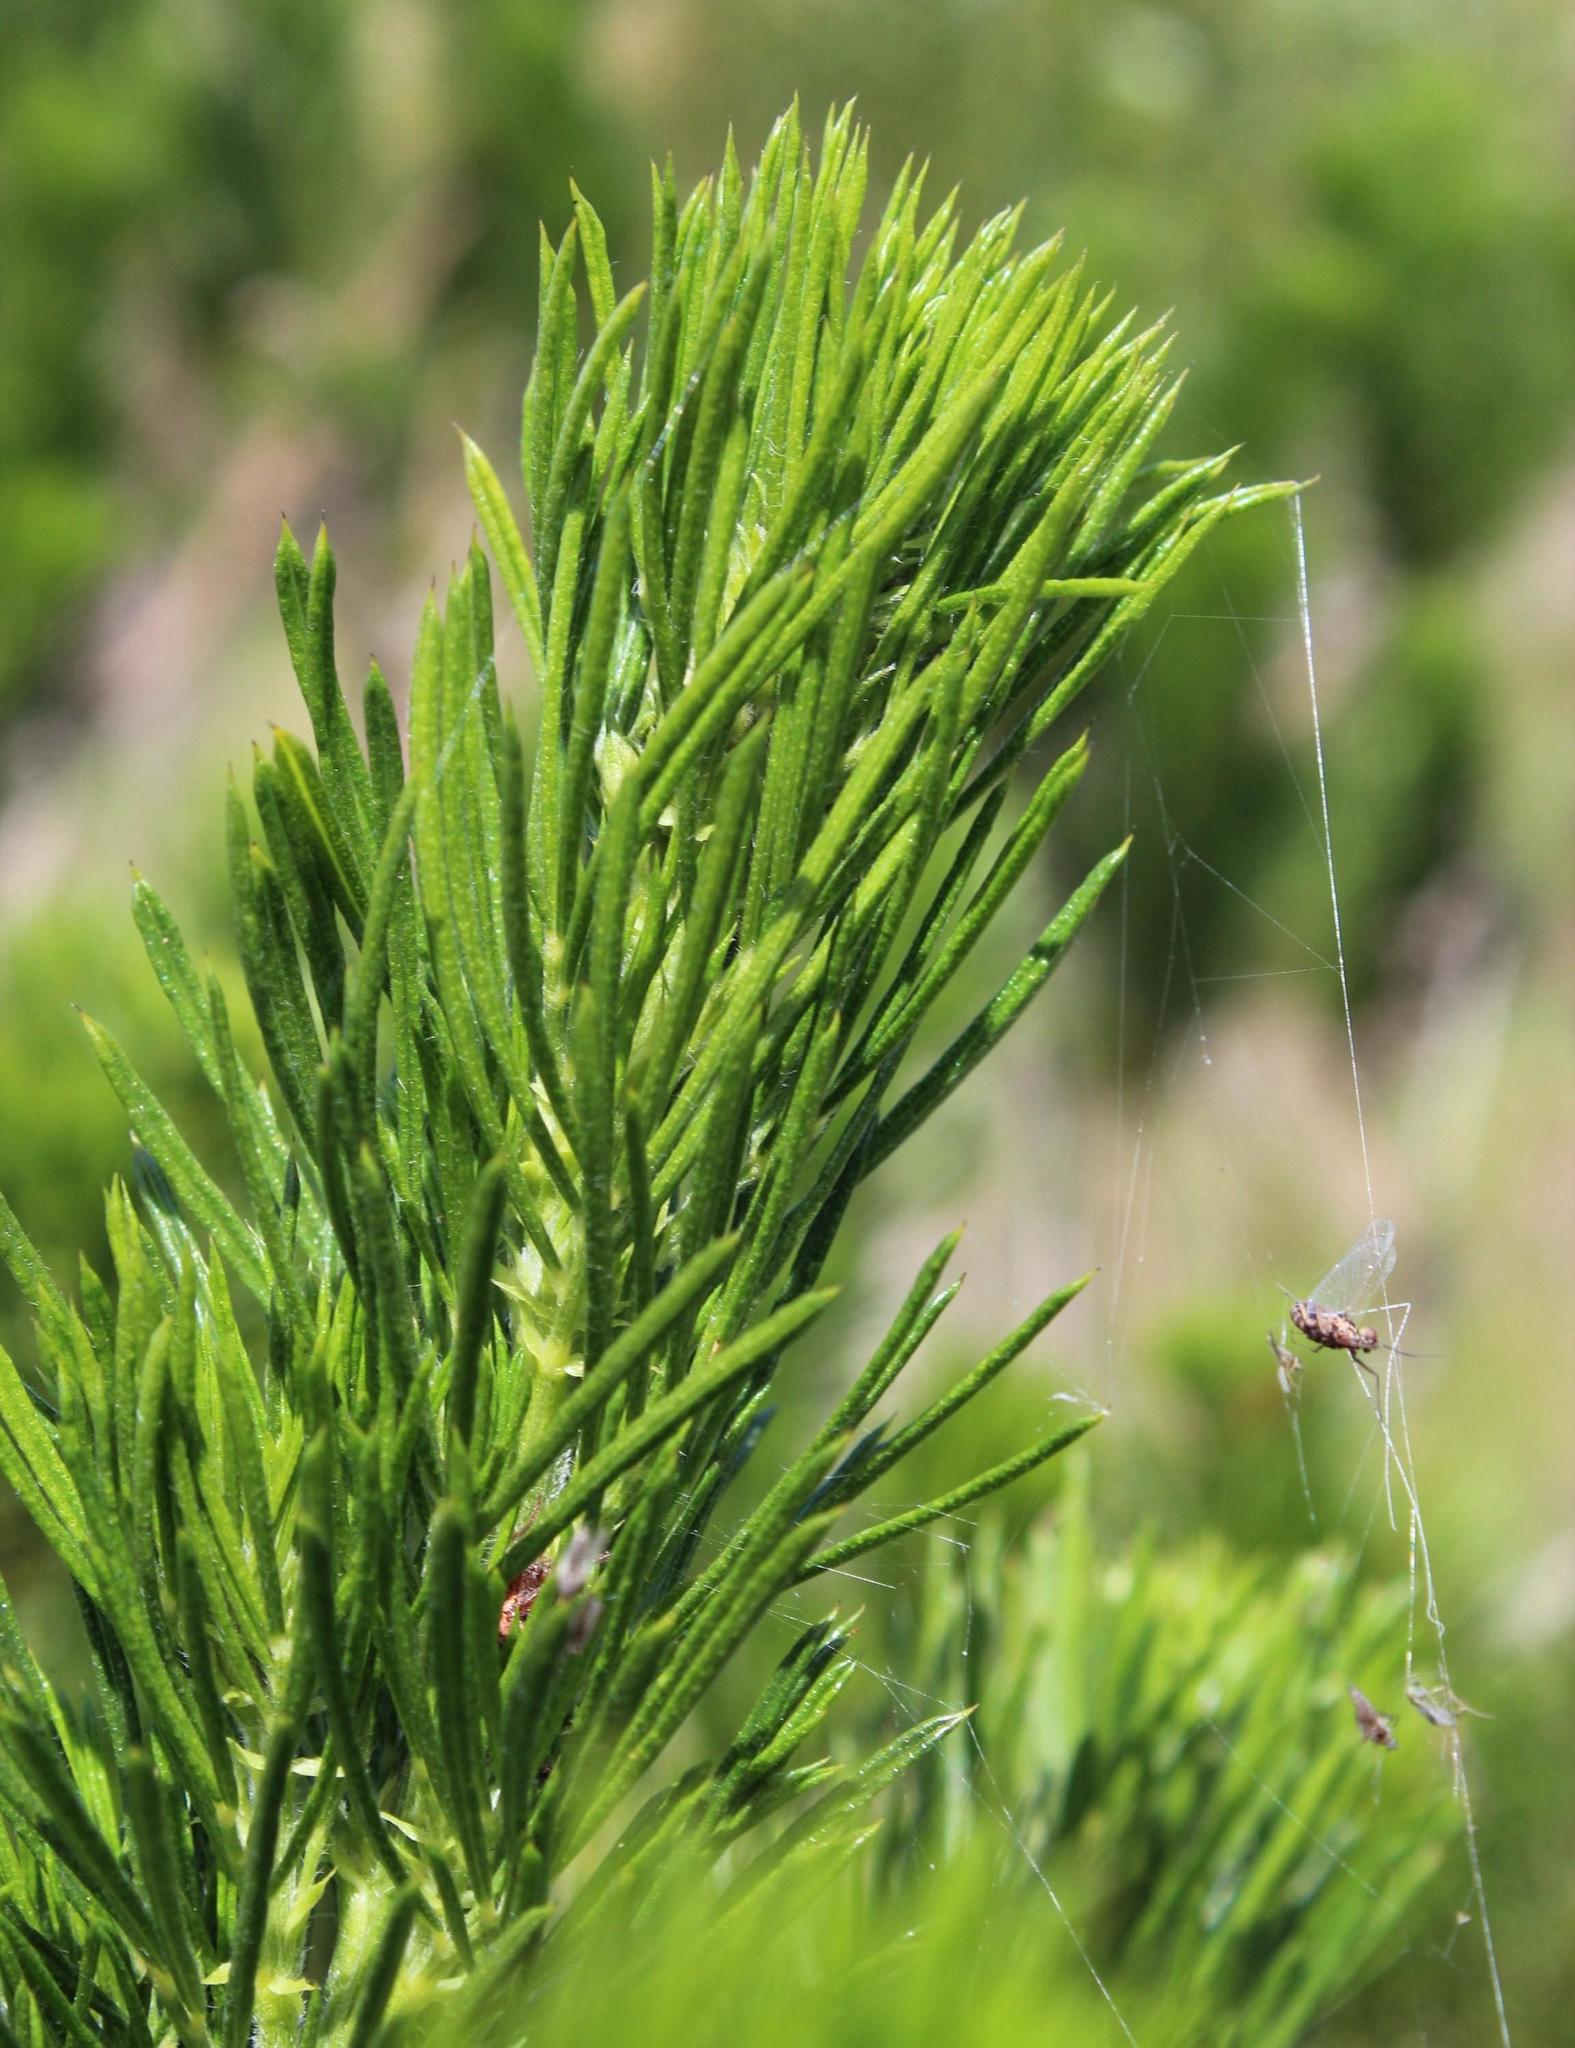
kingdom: Plantae
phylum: Tracheophyta
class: Magnoliopsida
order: Fabales
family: Fabaceae
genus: Psoralea
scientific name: Psoralea pinnata
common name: African scurfpea
